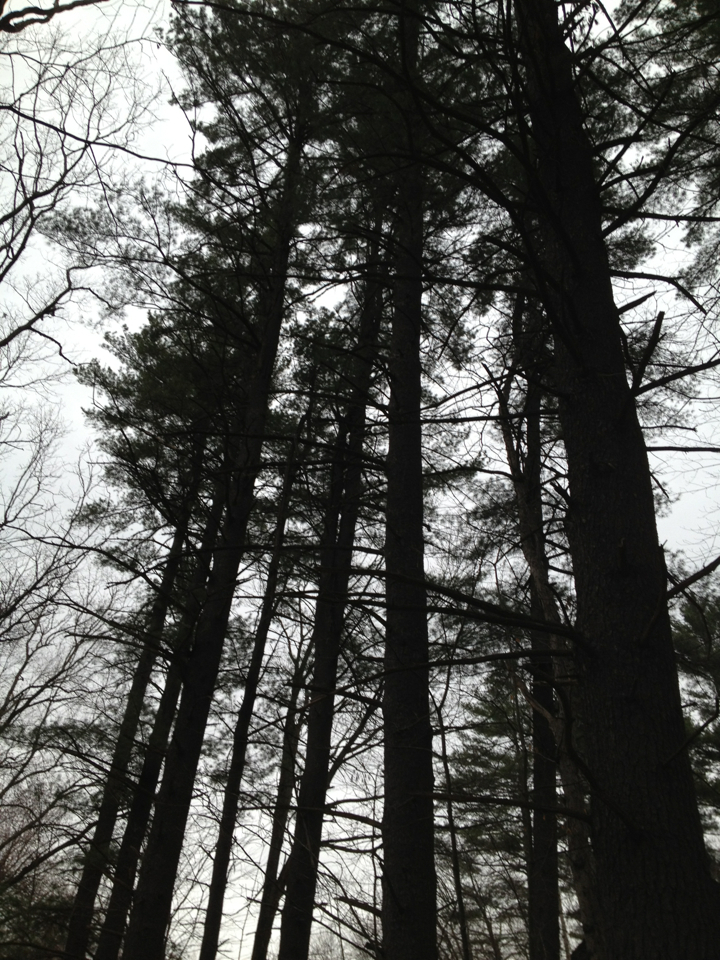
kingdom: Plantae
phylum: Tracheophyta
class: Pinopsida
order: Pinales
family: Pinaceae
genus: Pinus
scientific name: Pinus strobus
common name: Weymouth pine
